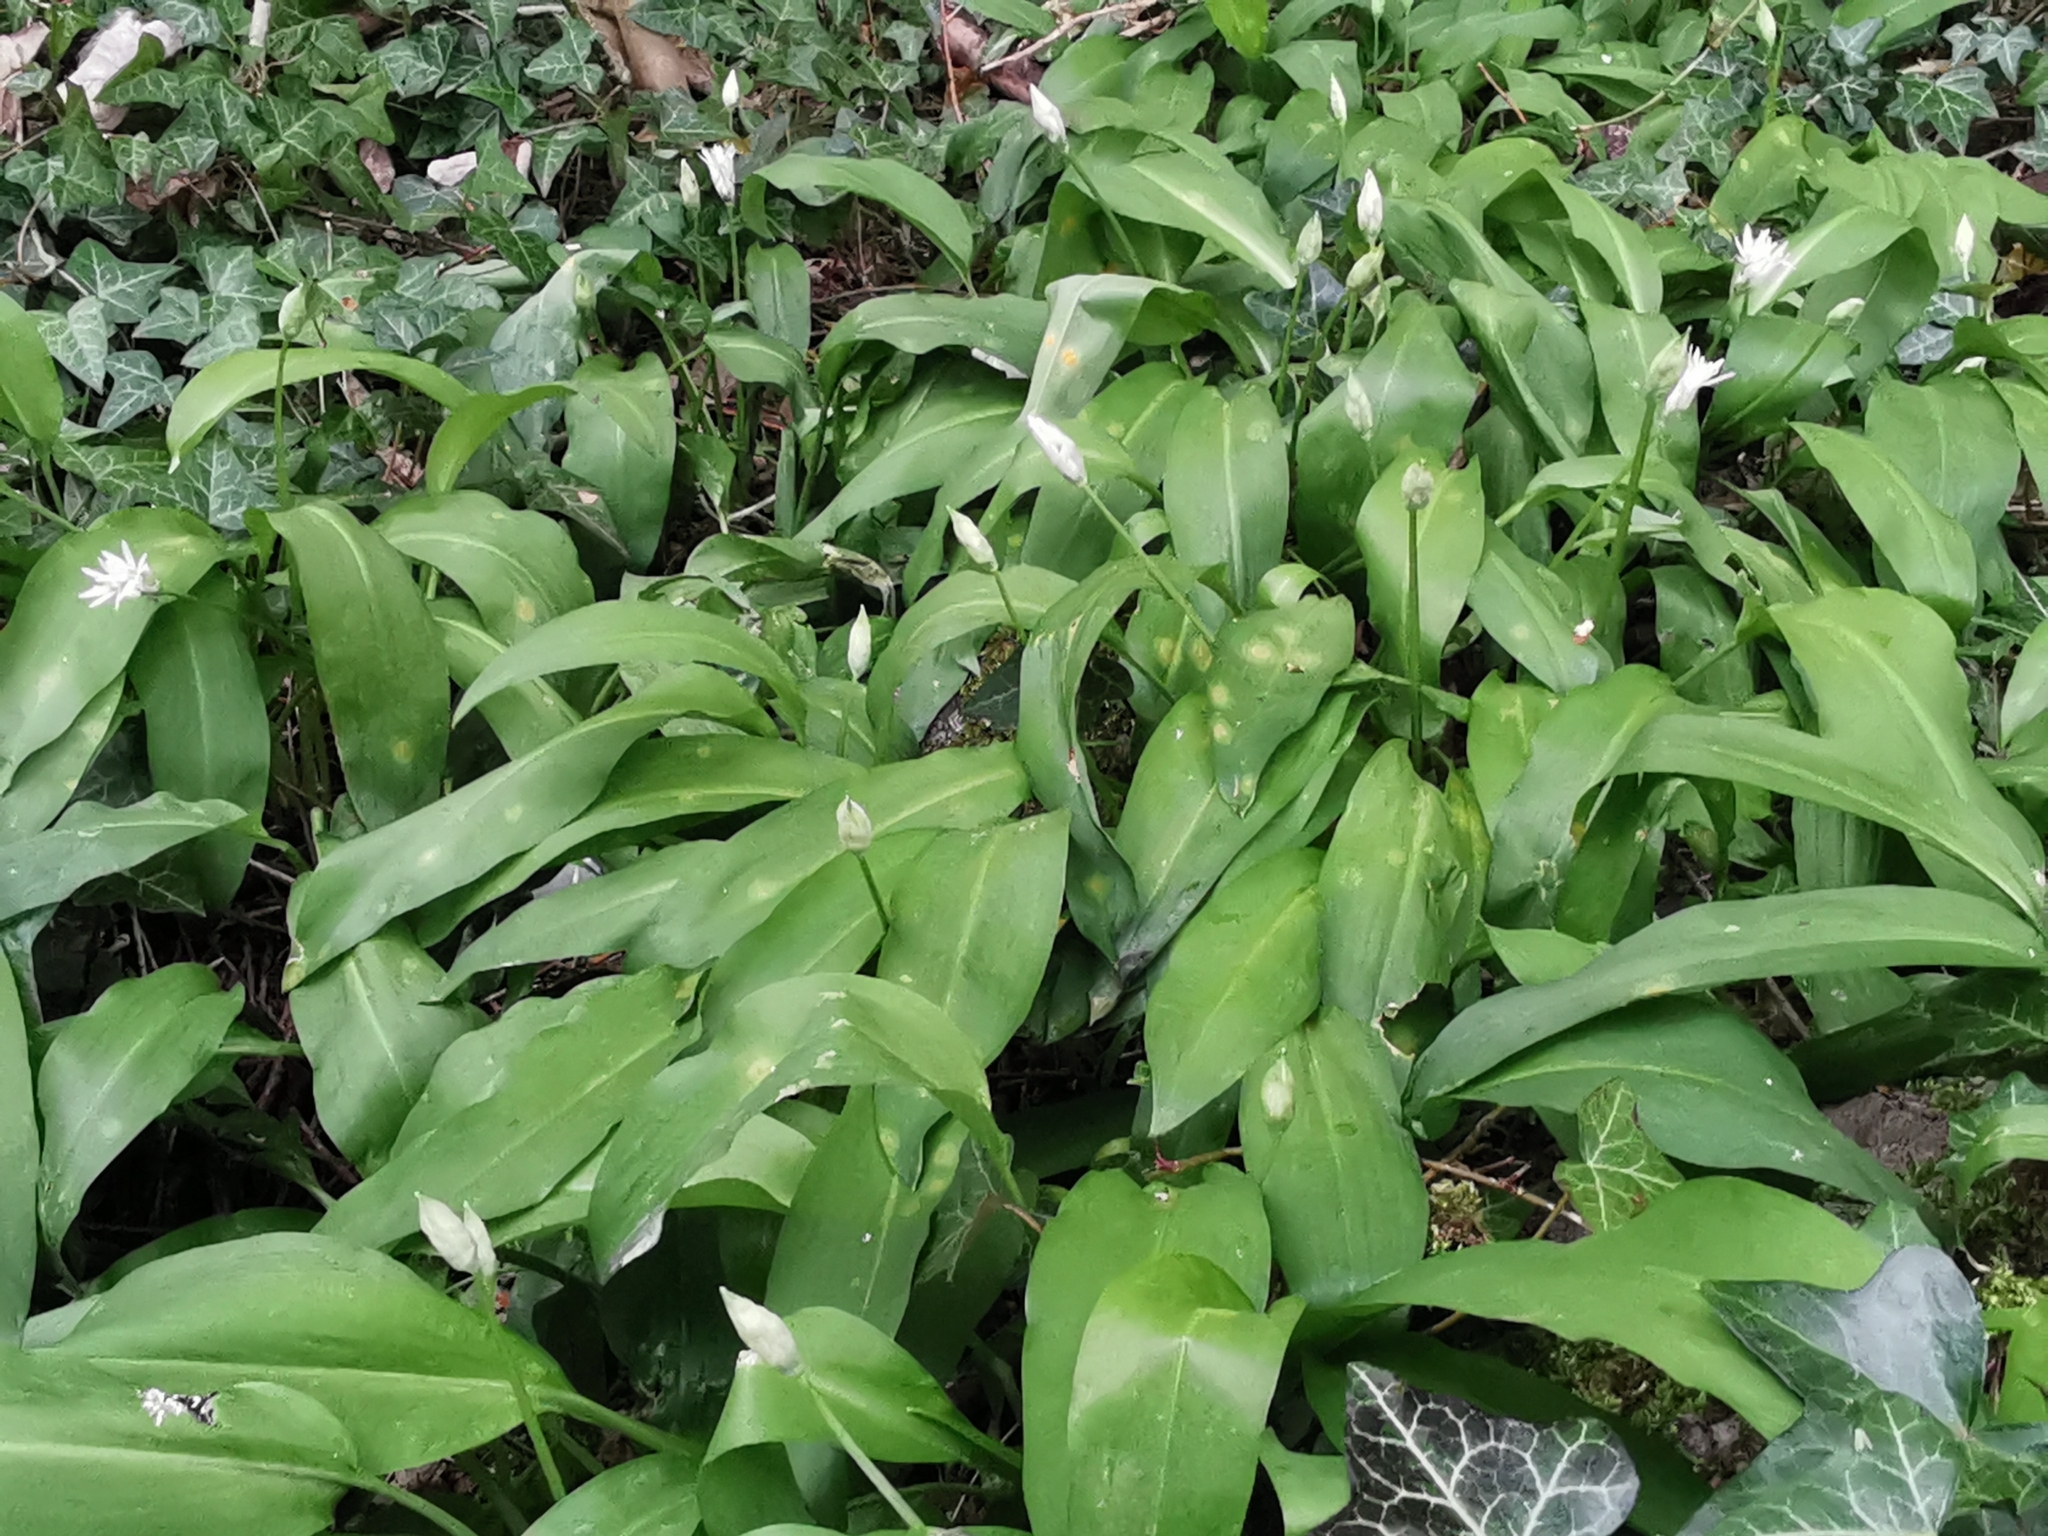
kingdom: Plantae
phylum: Tracheophyta
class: Liliopsida
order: Asparagales
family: Amaryllidaceae
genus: Allium
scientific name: Allium ursinum
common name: Ramsons
